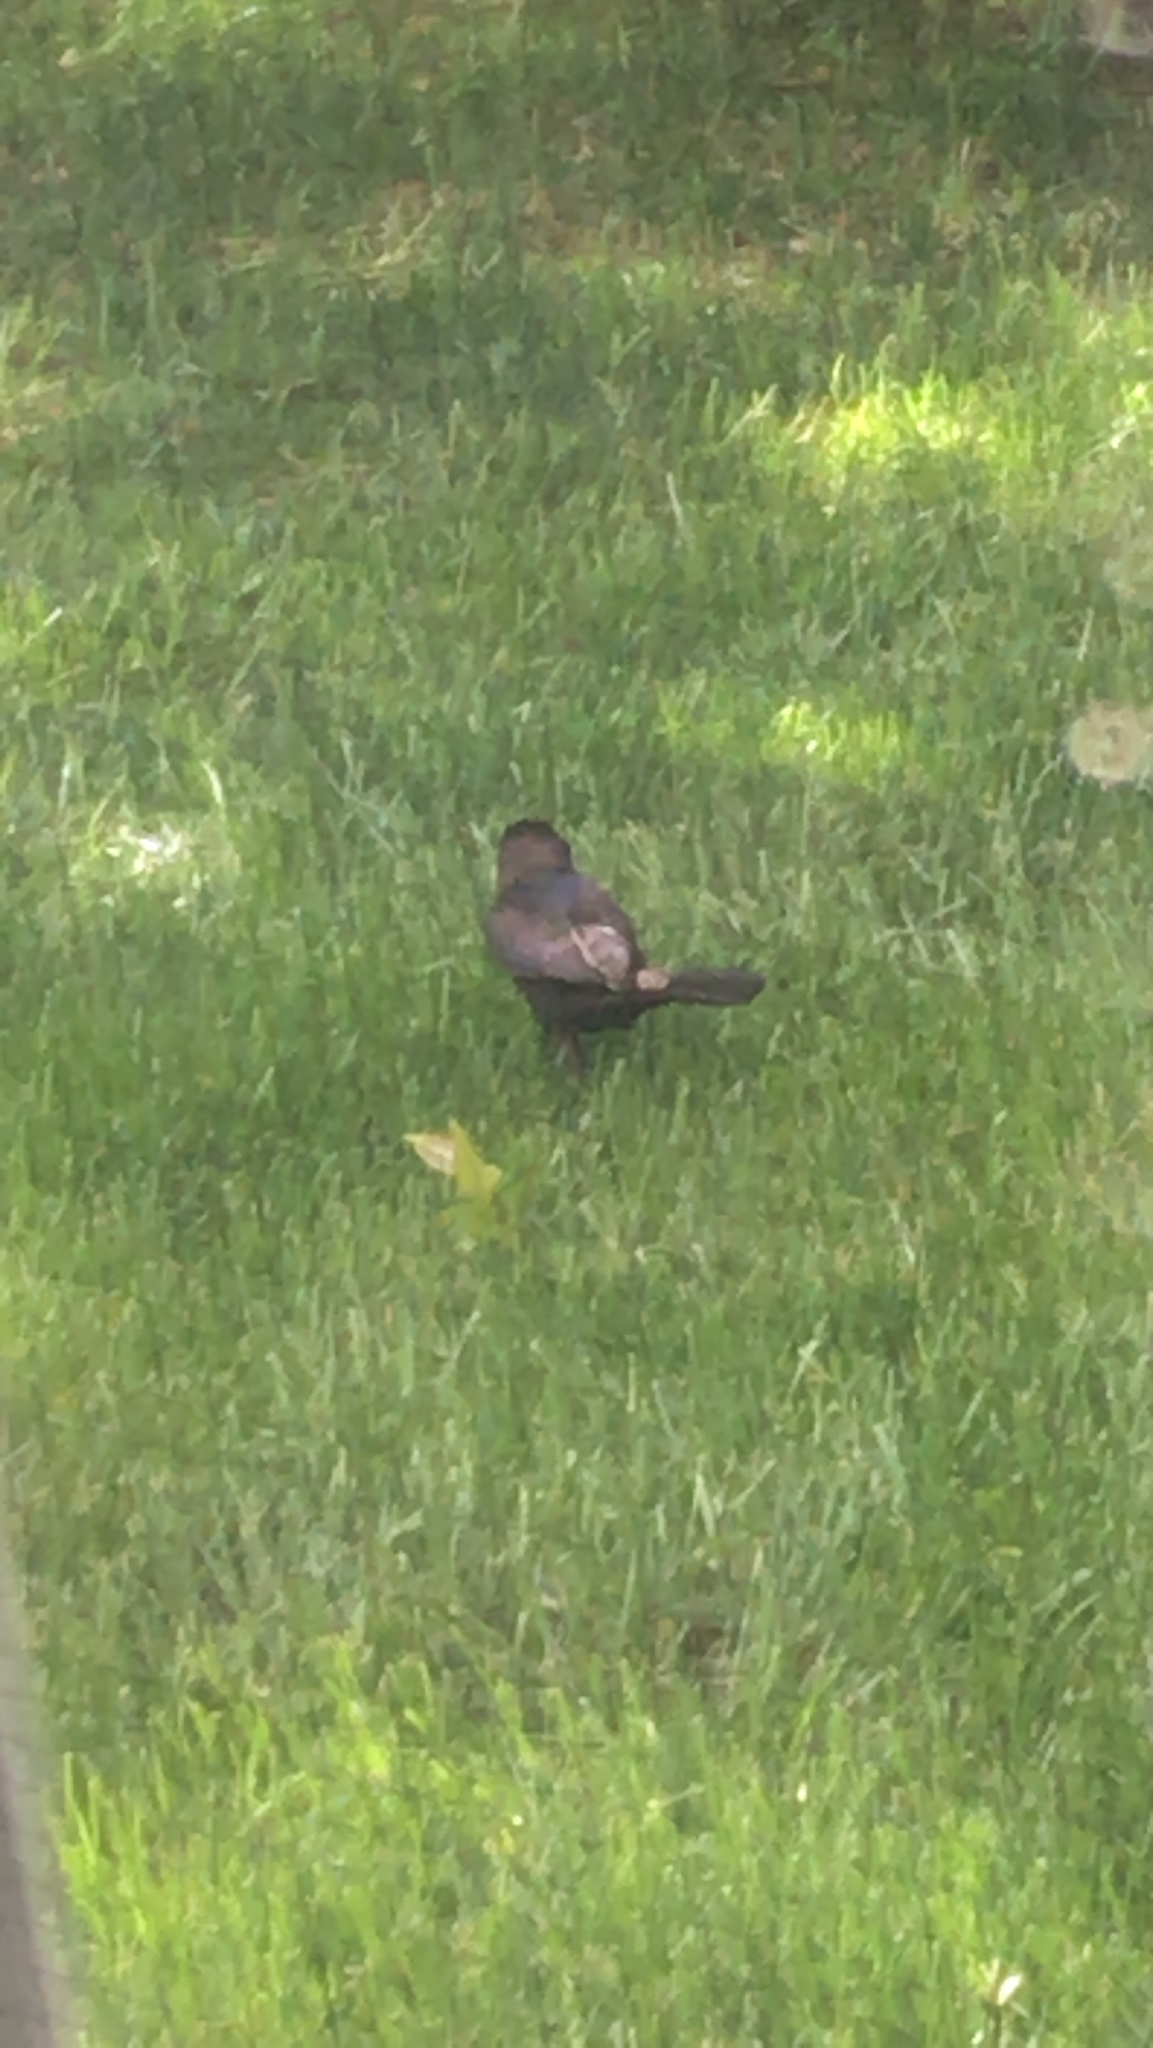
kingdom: Animalia
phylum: Chordata
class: Aves
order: Passeriformes
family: Icteridae
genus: Quiscalus
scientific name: Quiscalus quiscula
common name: Common grackle
